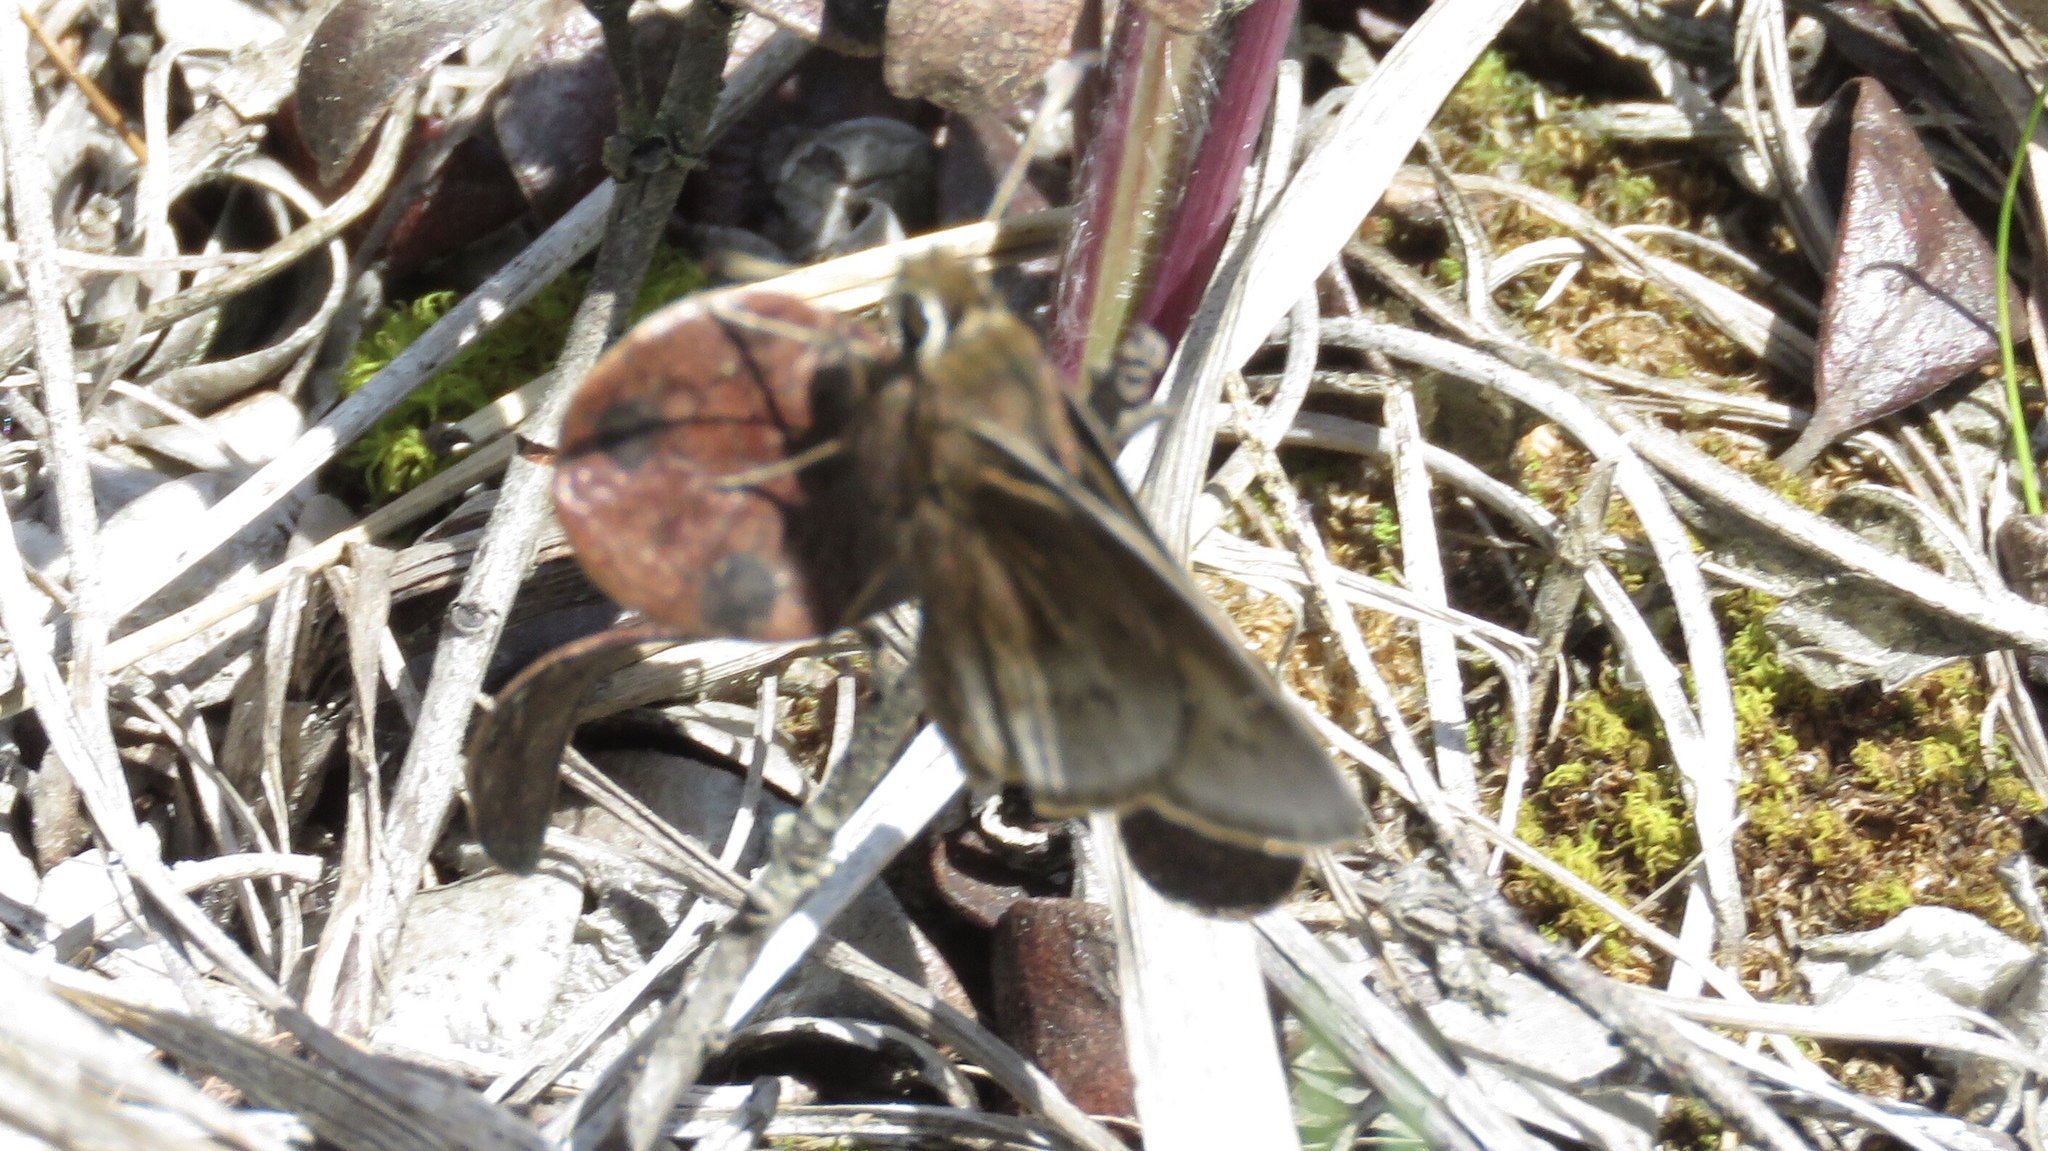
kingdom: Animalia
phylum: Arthropoda
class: Insecta
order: Lepidoptera
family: Hesperiidae
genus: Atrytonopsis
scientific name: Atrytonopsis hianna
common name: Dusted skipper
